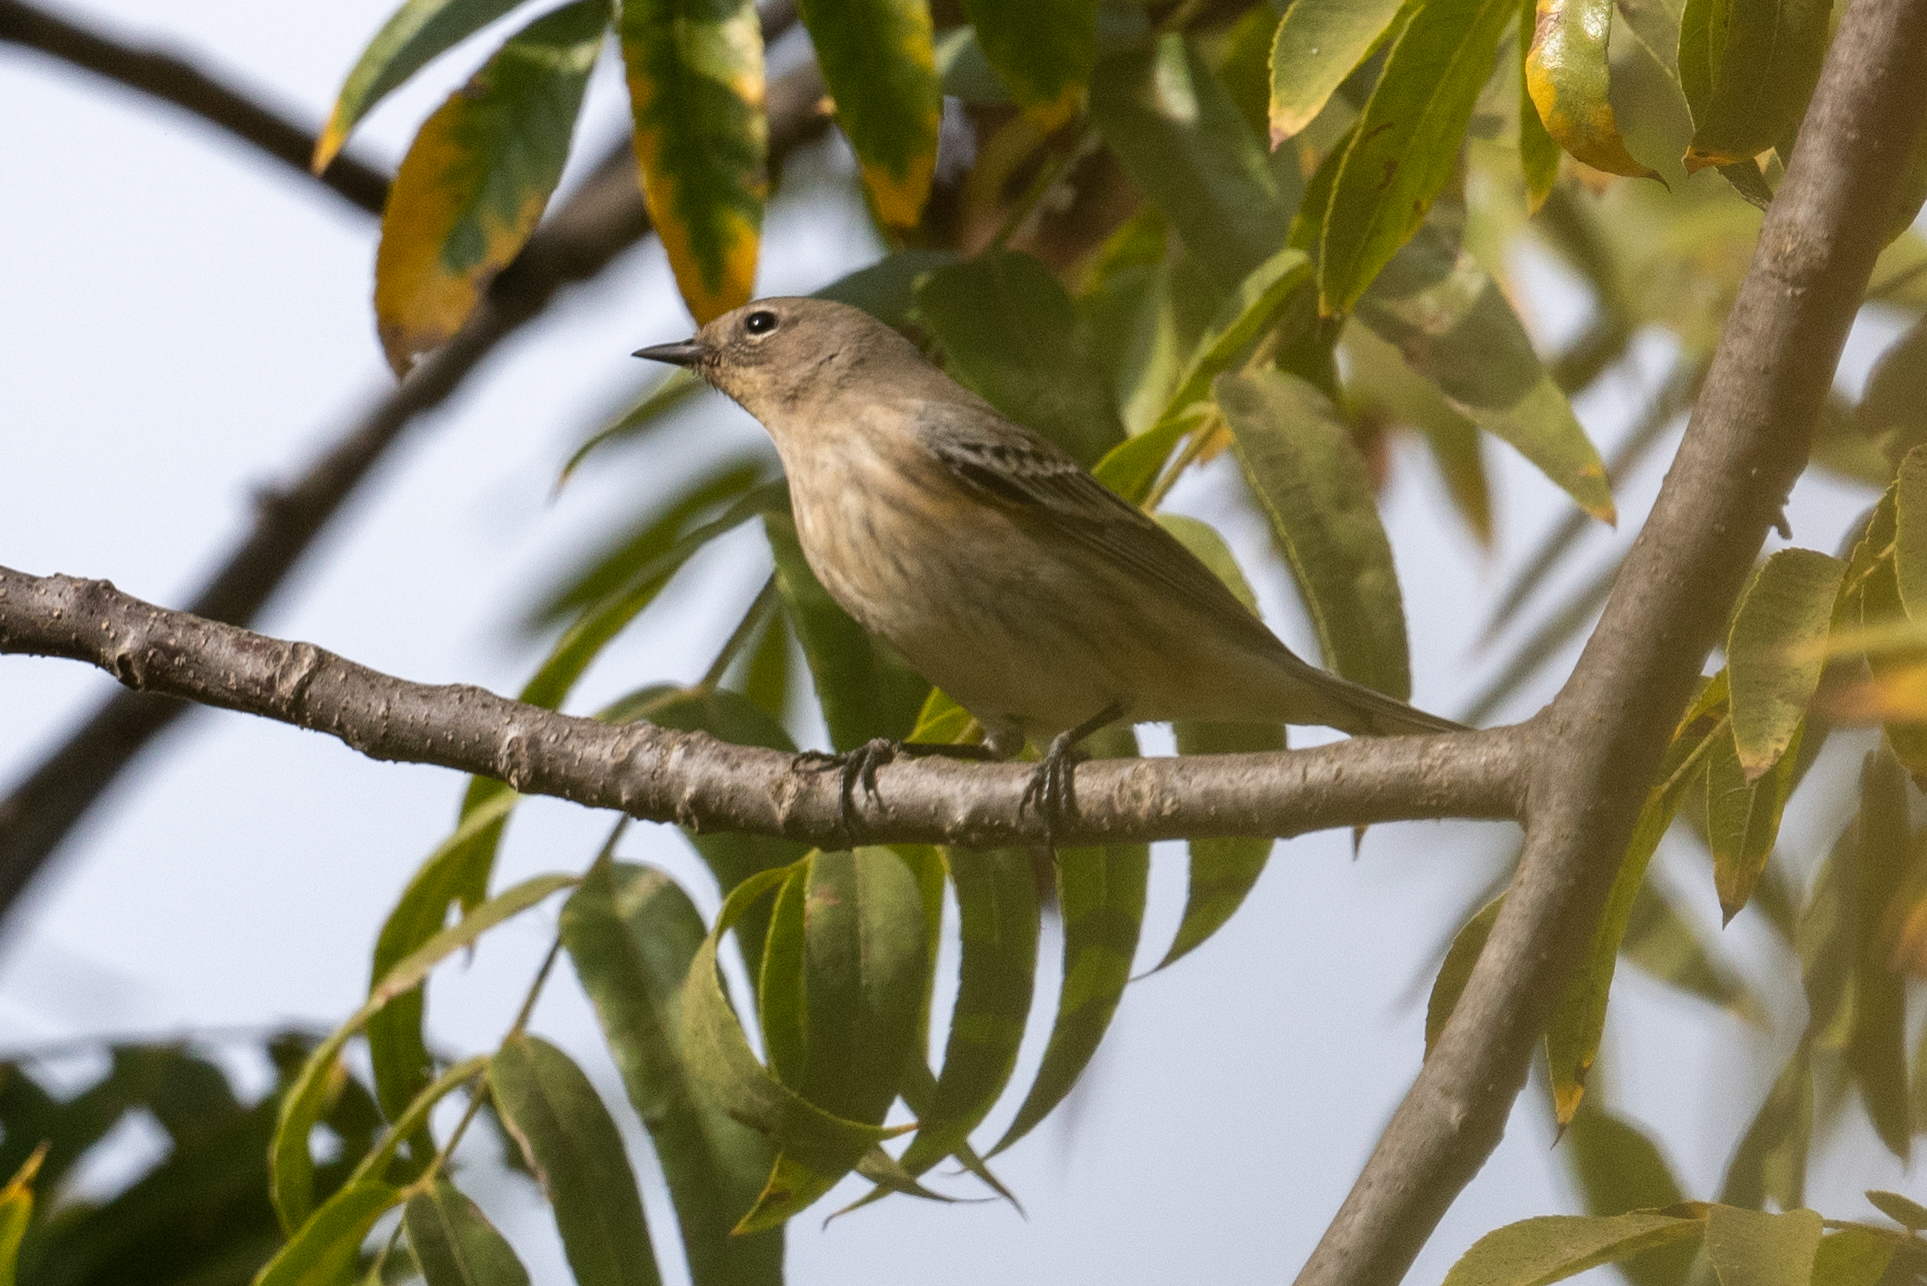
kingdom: Animalia
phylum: Chordata
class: Aves
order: Passeriformes
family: Parulidae
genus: Setophaga
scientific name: Setophaga coronata
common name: Myrtle warbler
